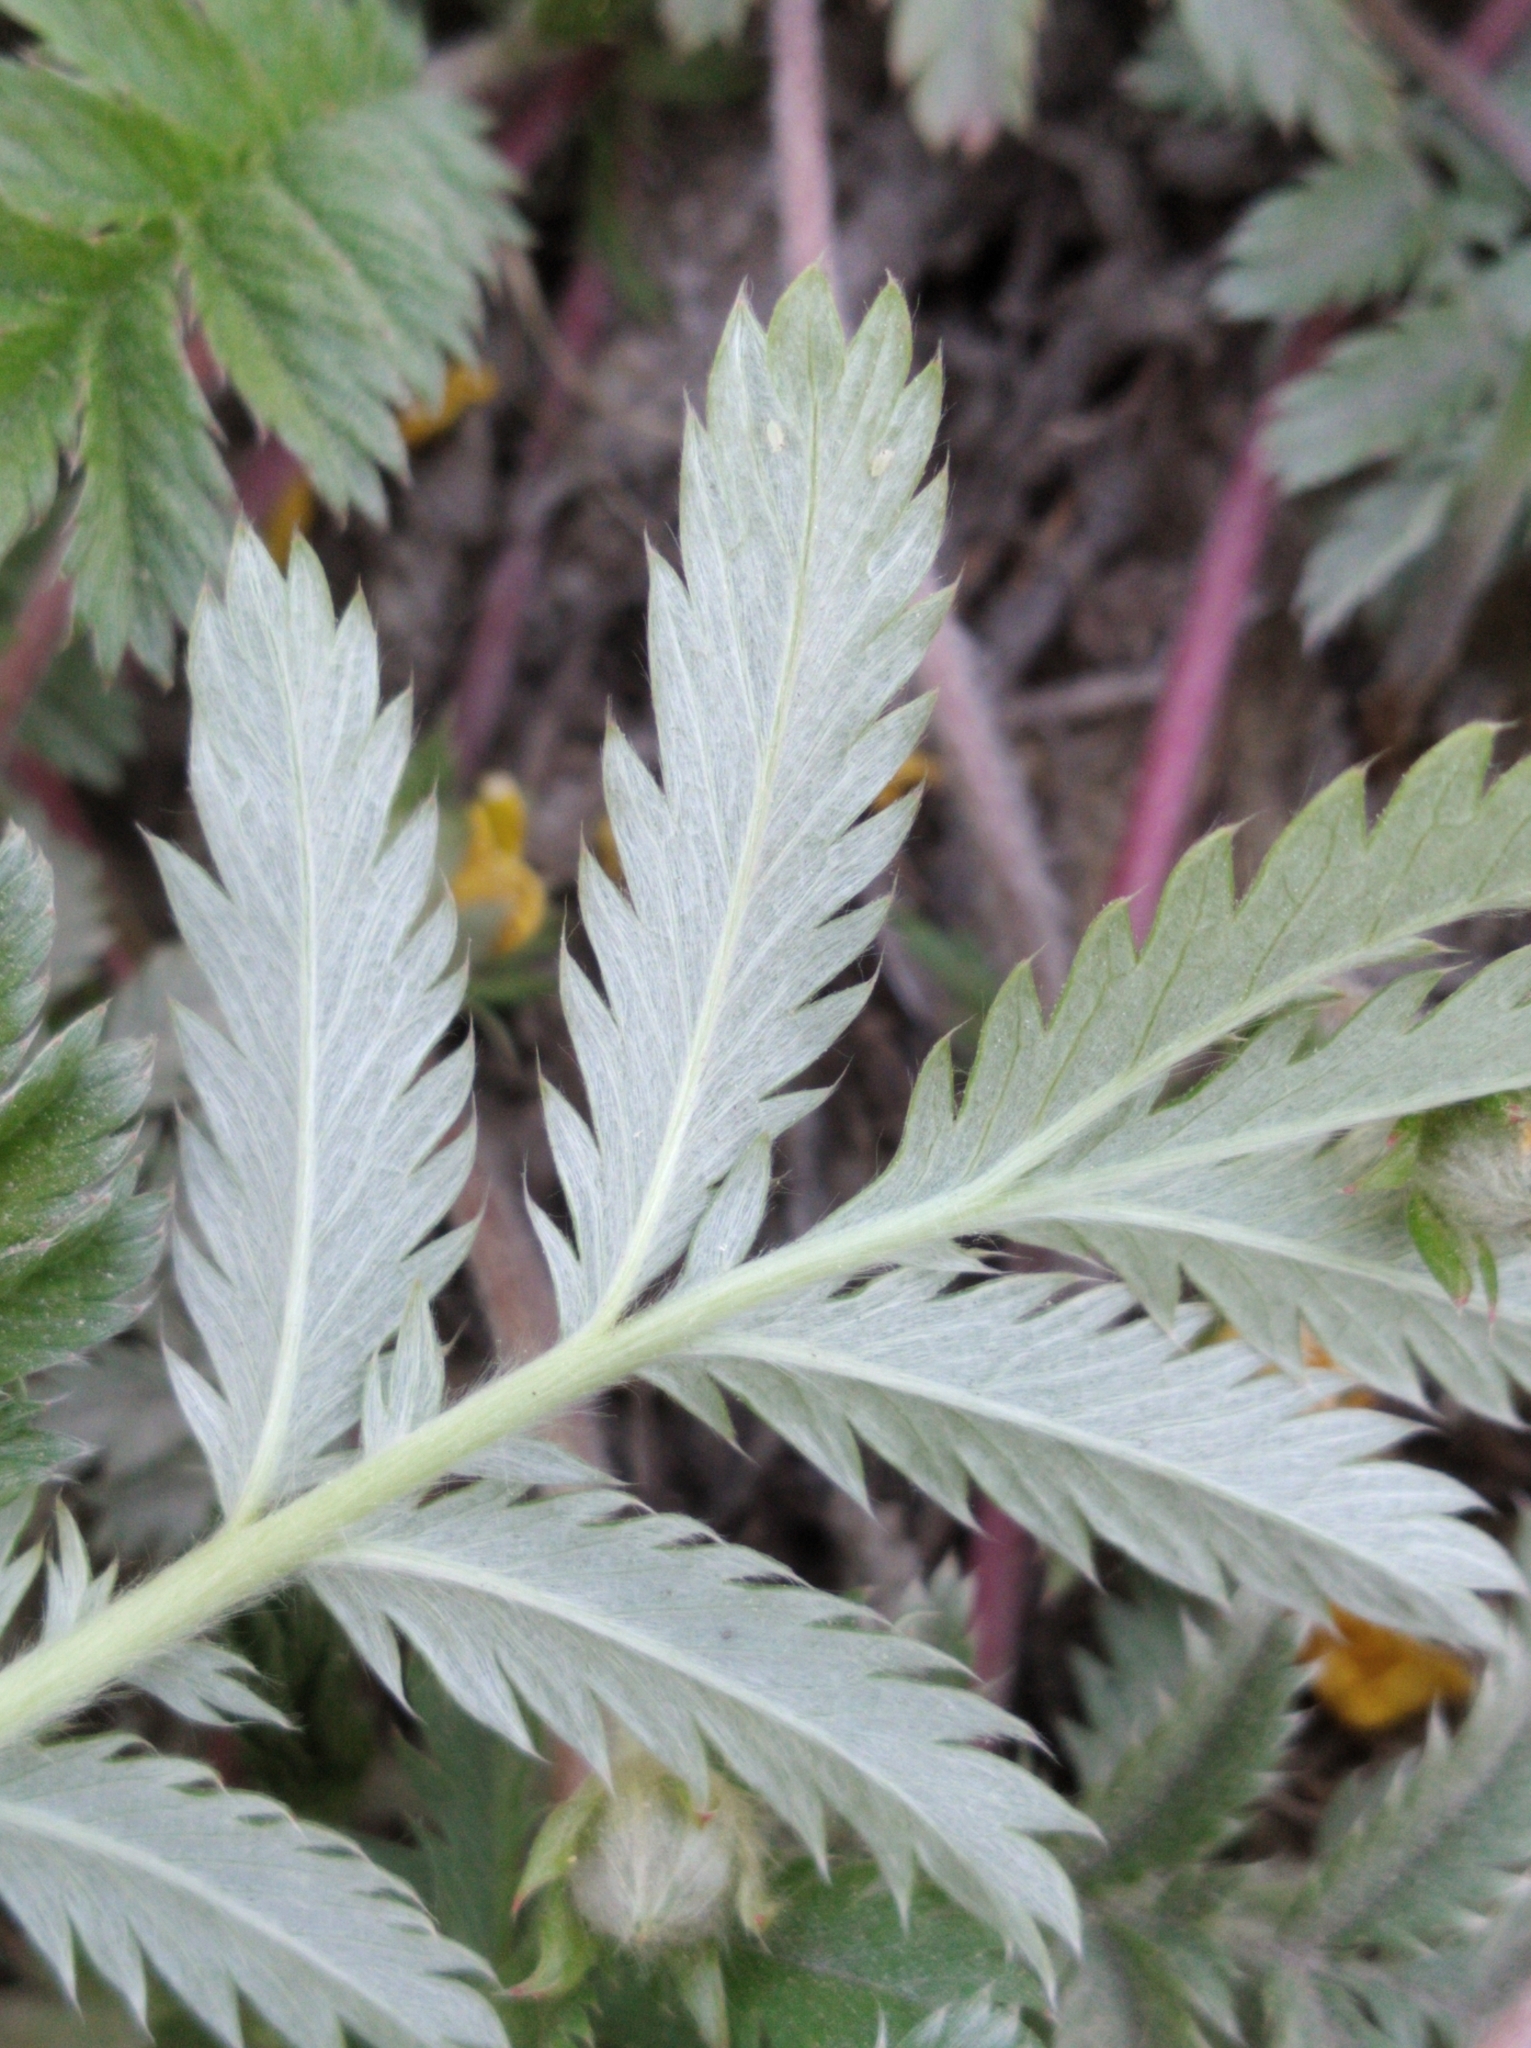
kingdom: Plantae
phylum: Tracheophyta
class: Magnoliopsida
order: Rosales
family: Rosaceae
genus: Argentina
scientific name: Argentina anserina
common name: Common silverweed
